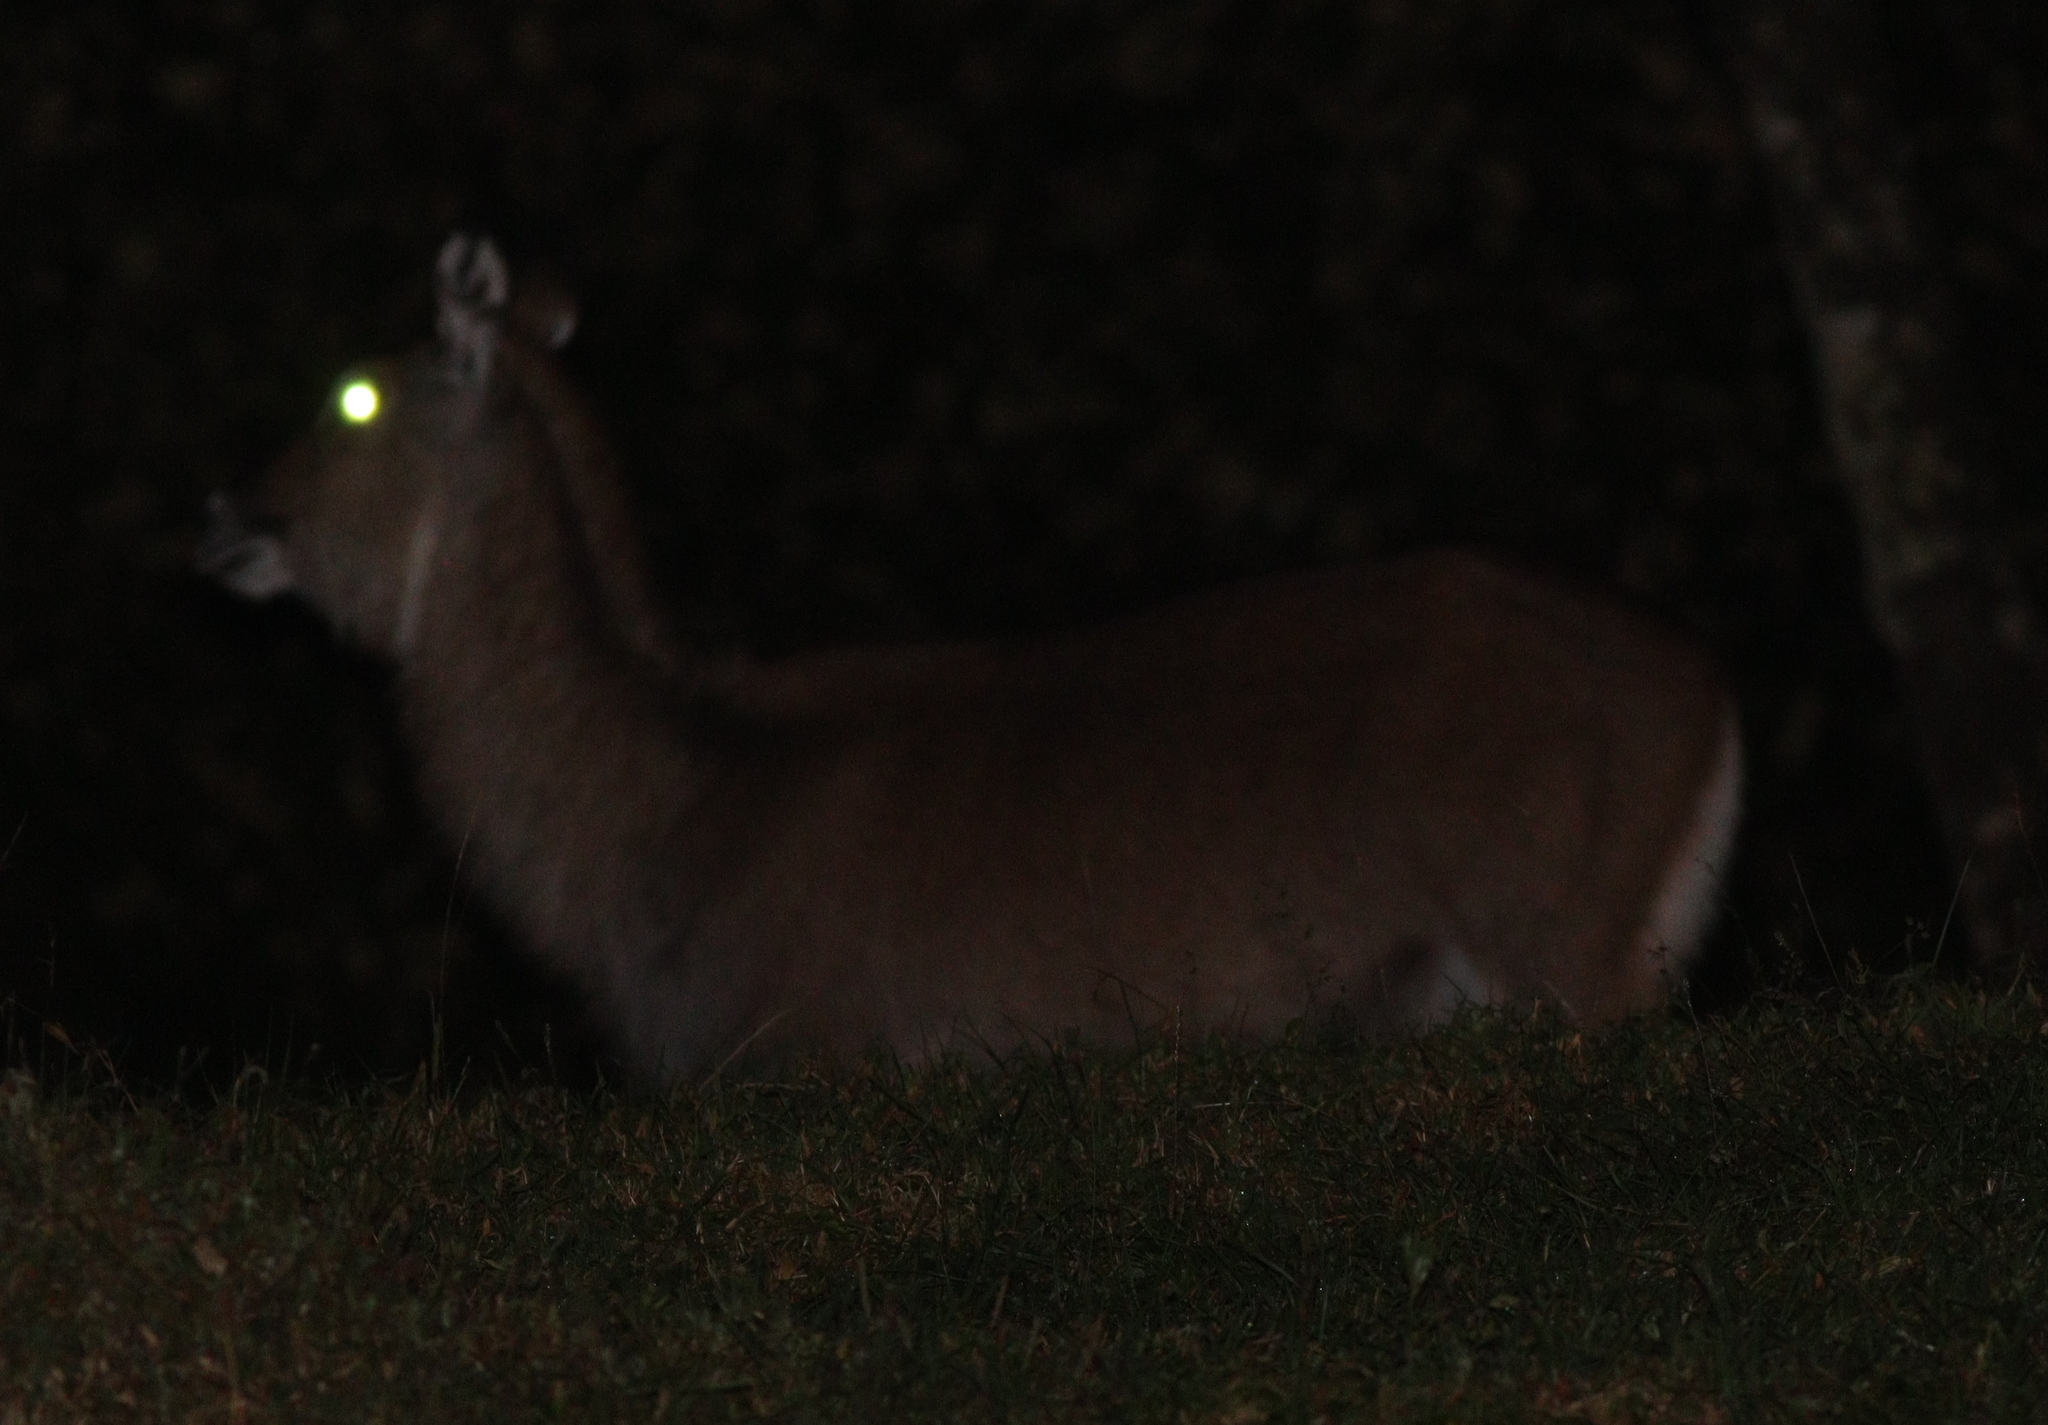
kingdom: Animalia
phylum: Chordata
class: Mammalia
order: Artiodactyla
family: Bovidae
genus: Kobus
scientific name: Kobus ellipsiprymnus
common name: Waterbuck
